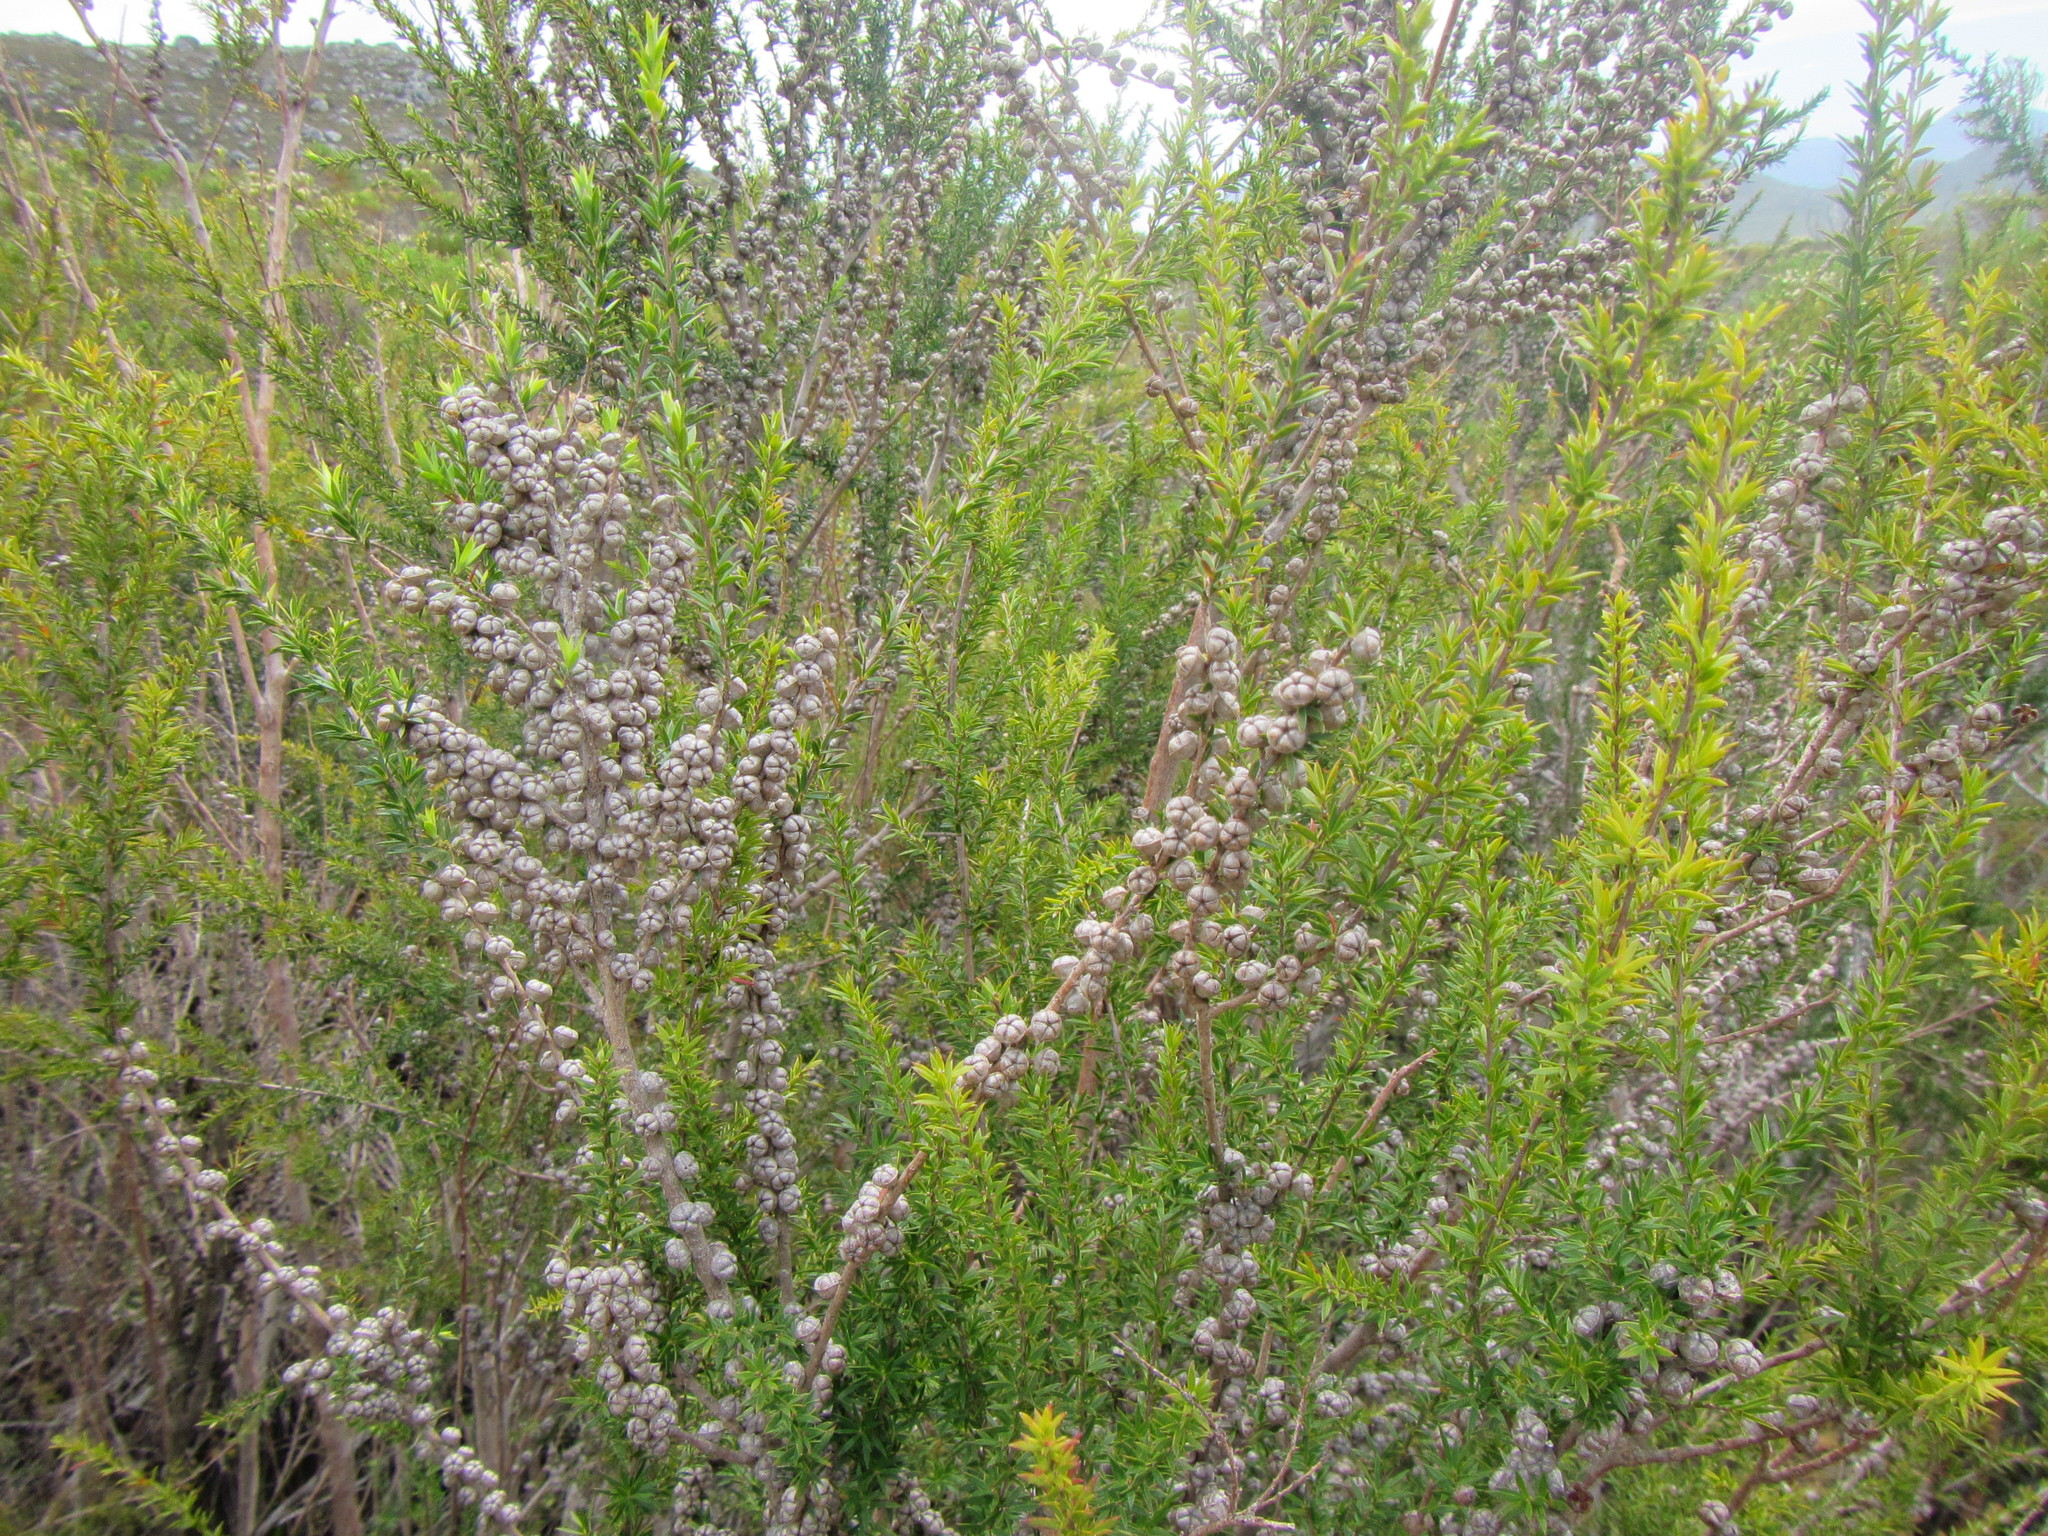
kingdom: Plantae
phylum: Tracheophyta
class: Magnoliopsida
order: Myrtales
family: Myrtaceae
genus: Leptospermum
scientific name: Leptospermum continentale
